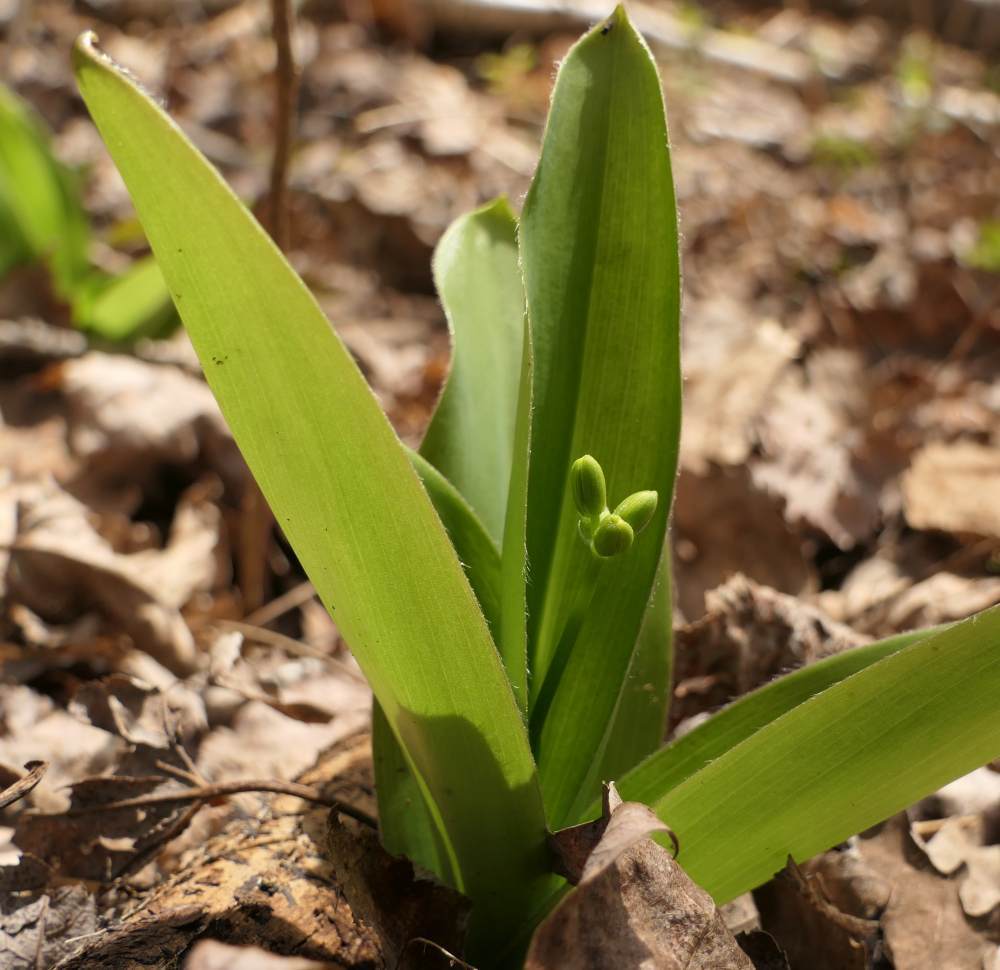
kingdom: Plantae
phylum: Tracheophyta
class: Liliopsida
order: Liliales
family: Liliaceae
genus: Clintonia
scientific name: Clintonia borealis
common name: Yellow clintonia
